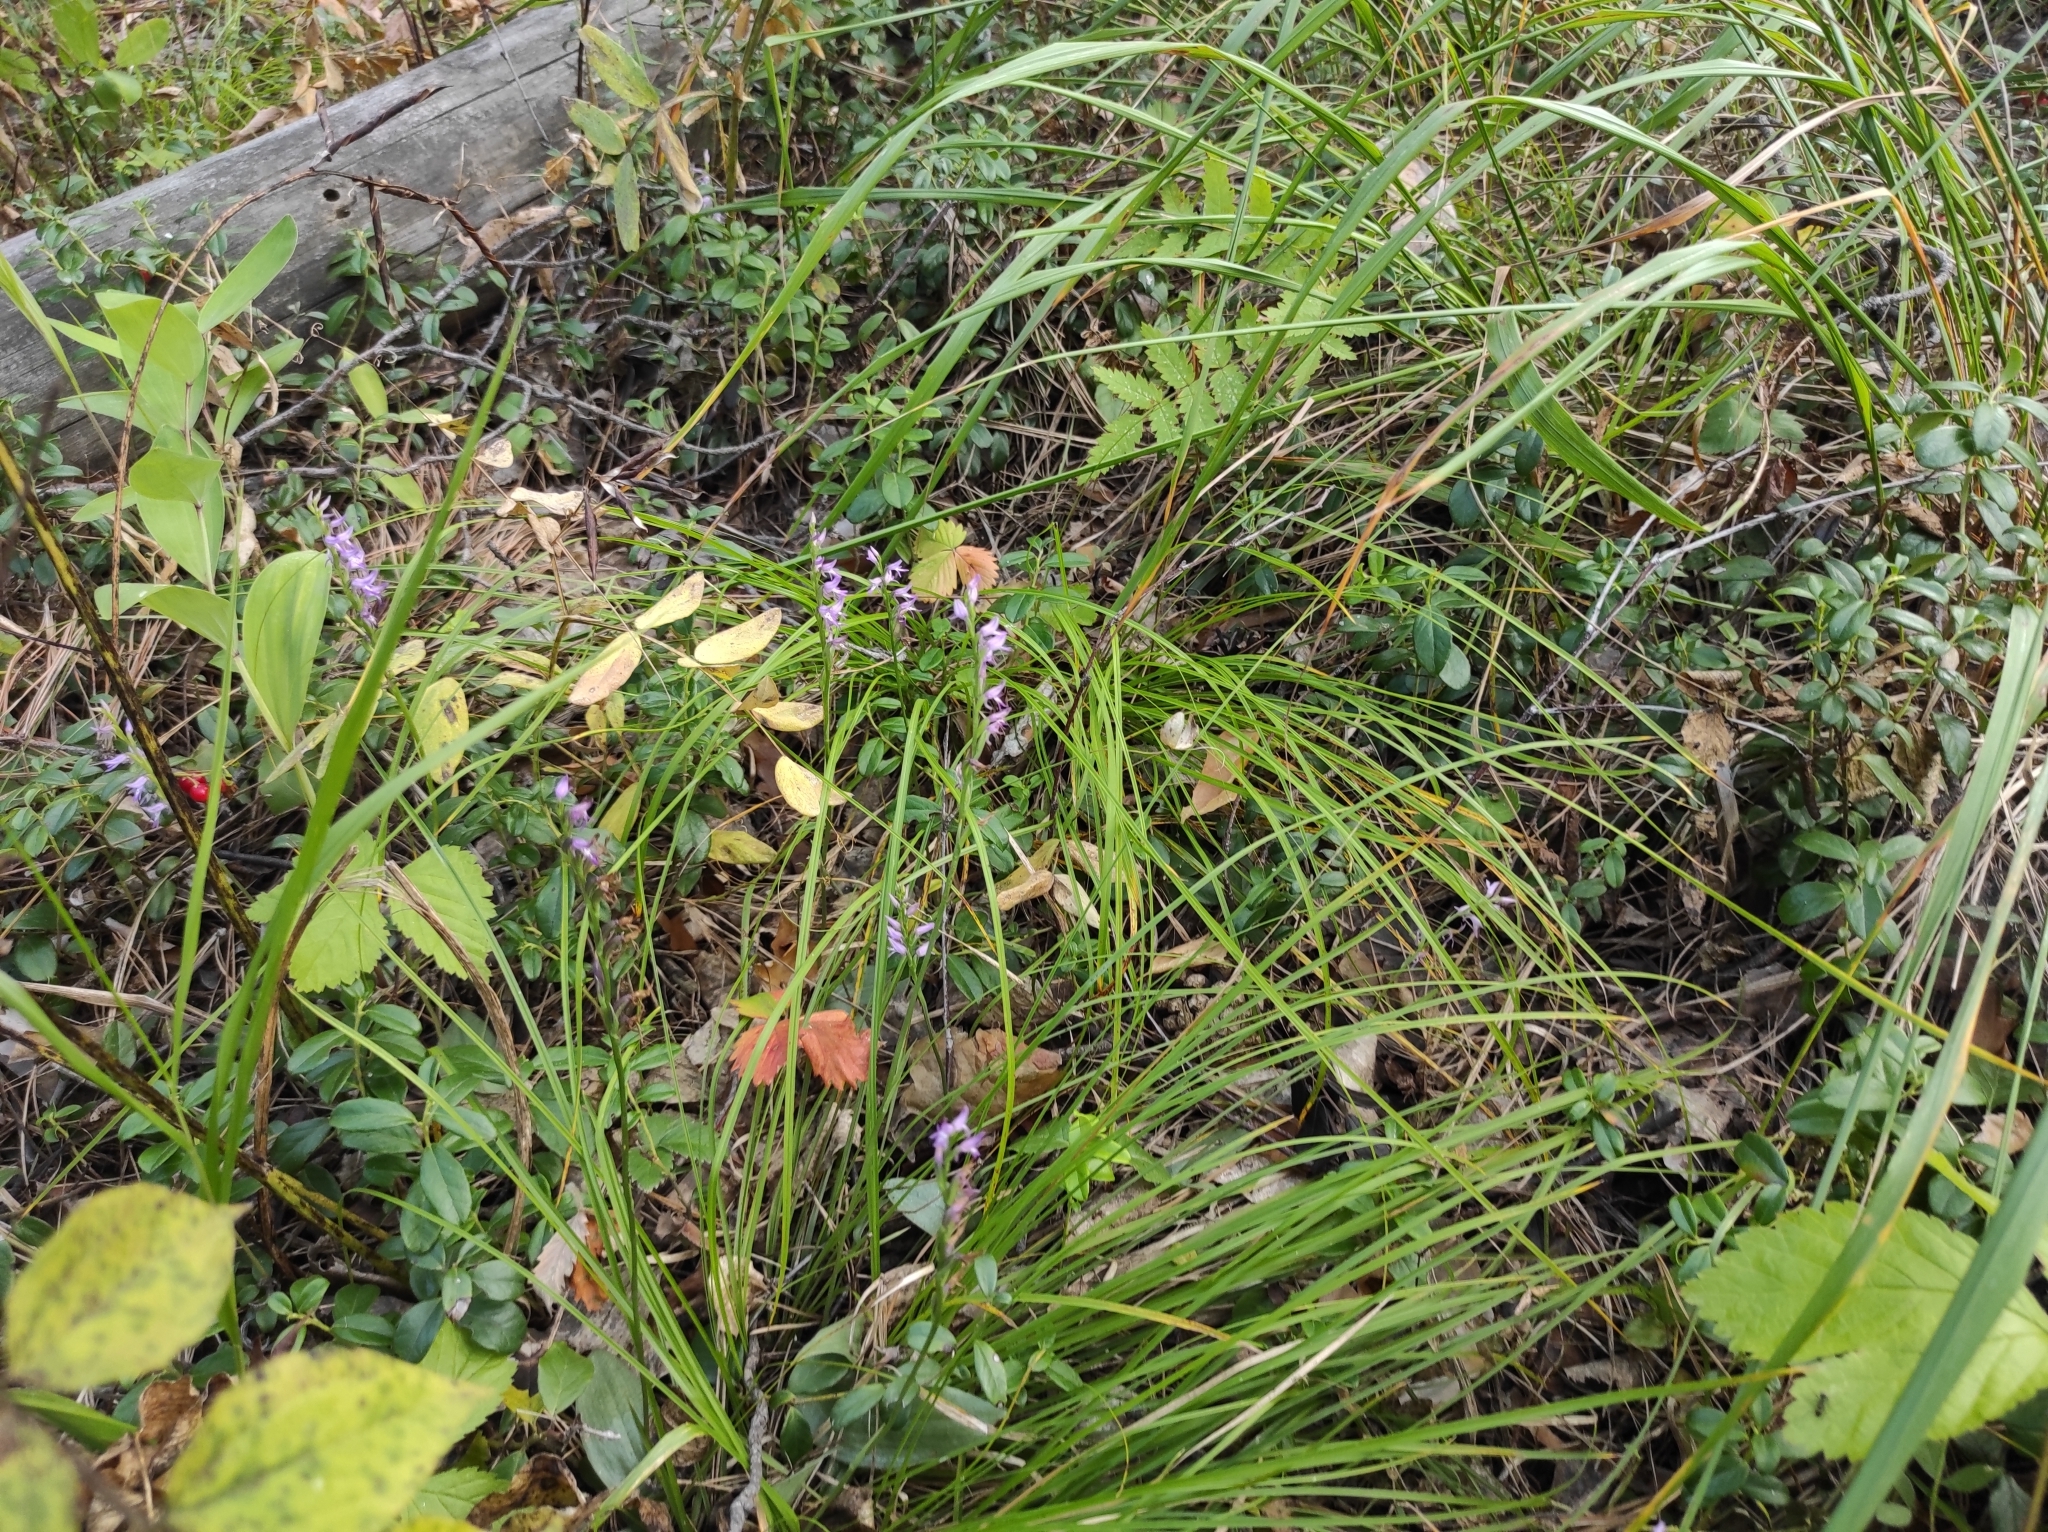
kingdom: Plantae
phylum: Tracheophyta
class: Liliopsida
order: Asparagales
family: Orchidaceae
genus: Hemipilia
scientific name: Hemipilia cucullata
